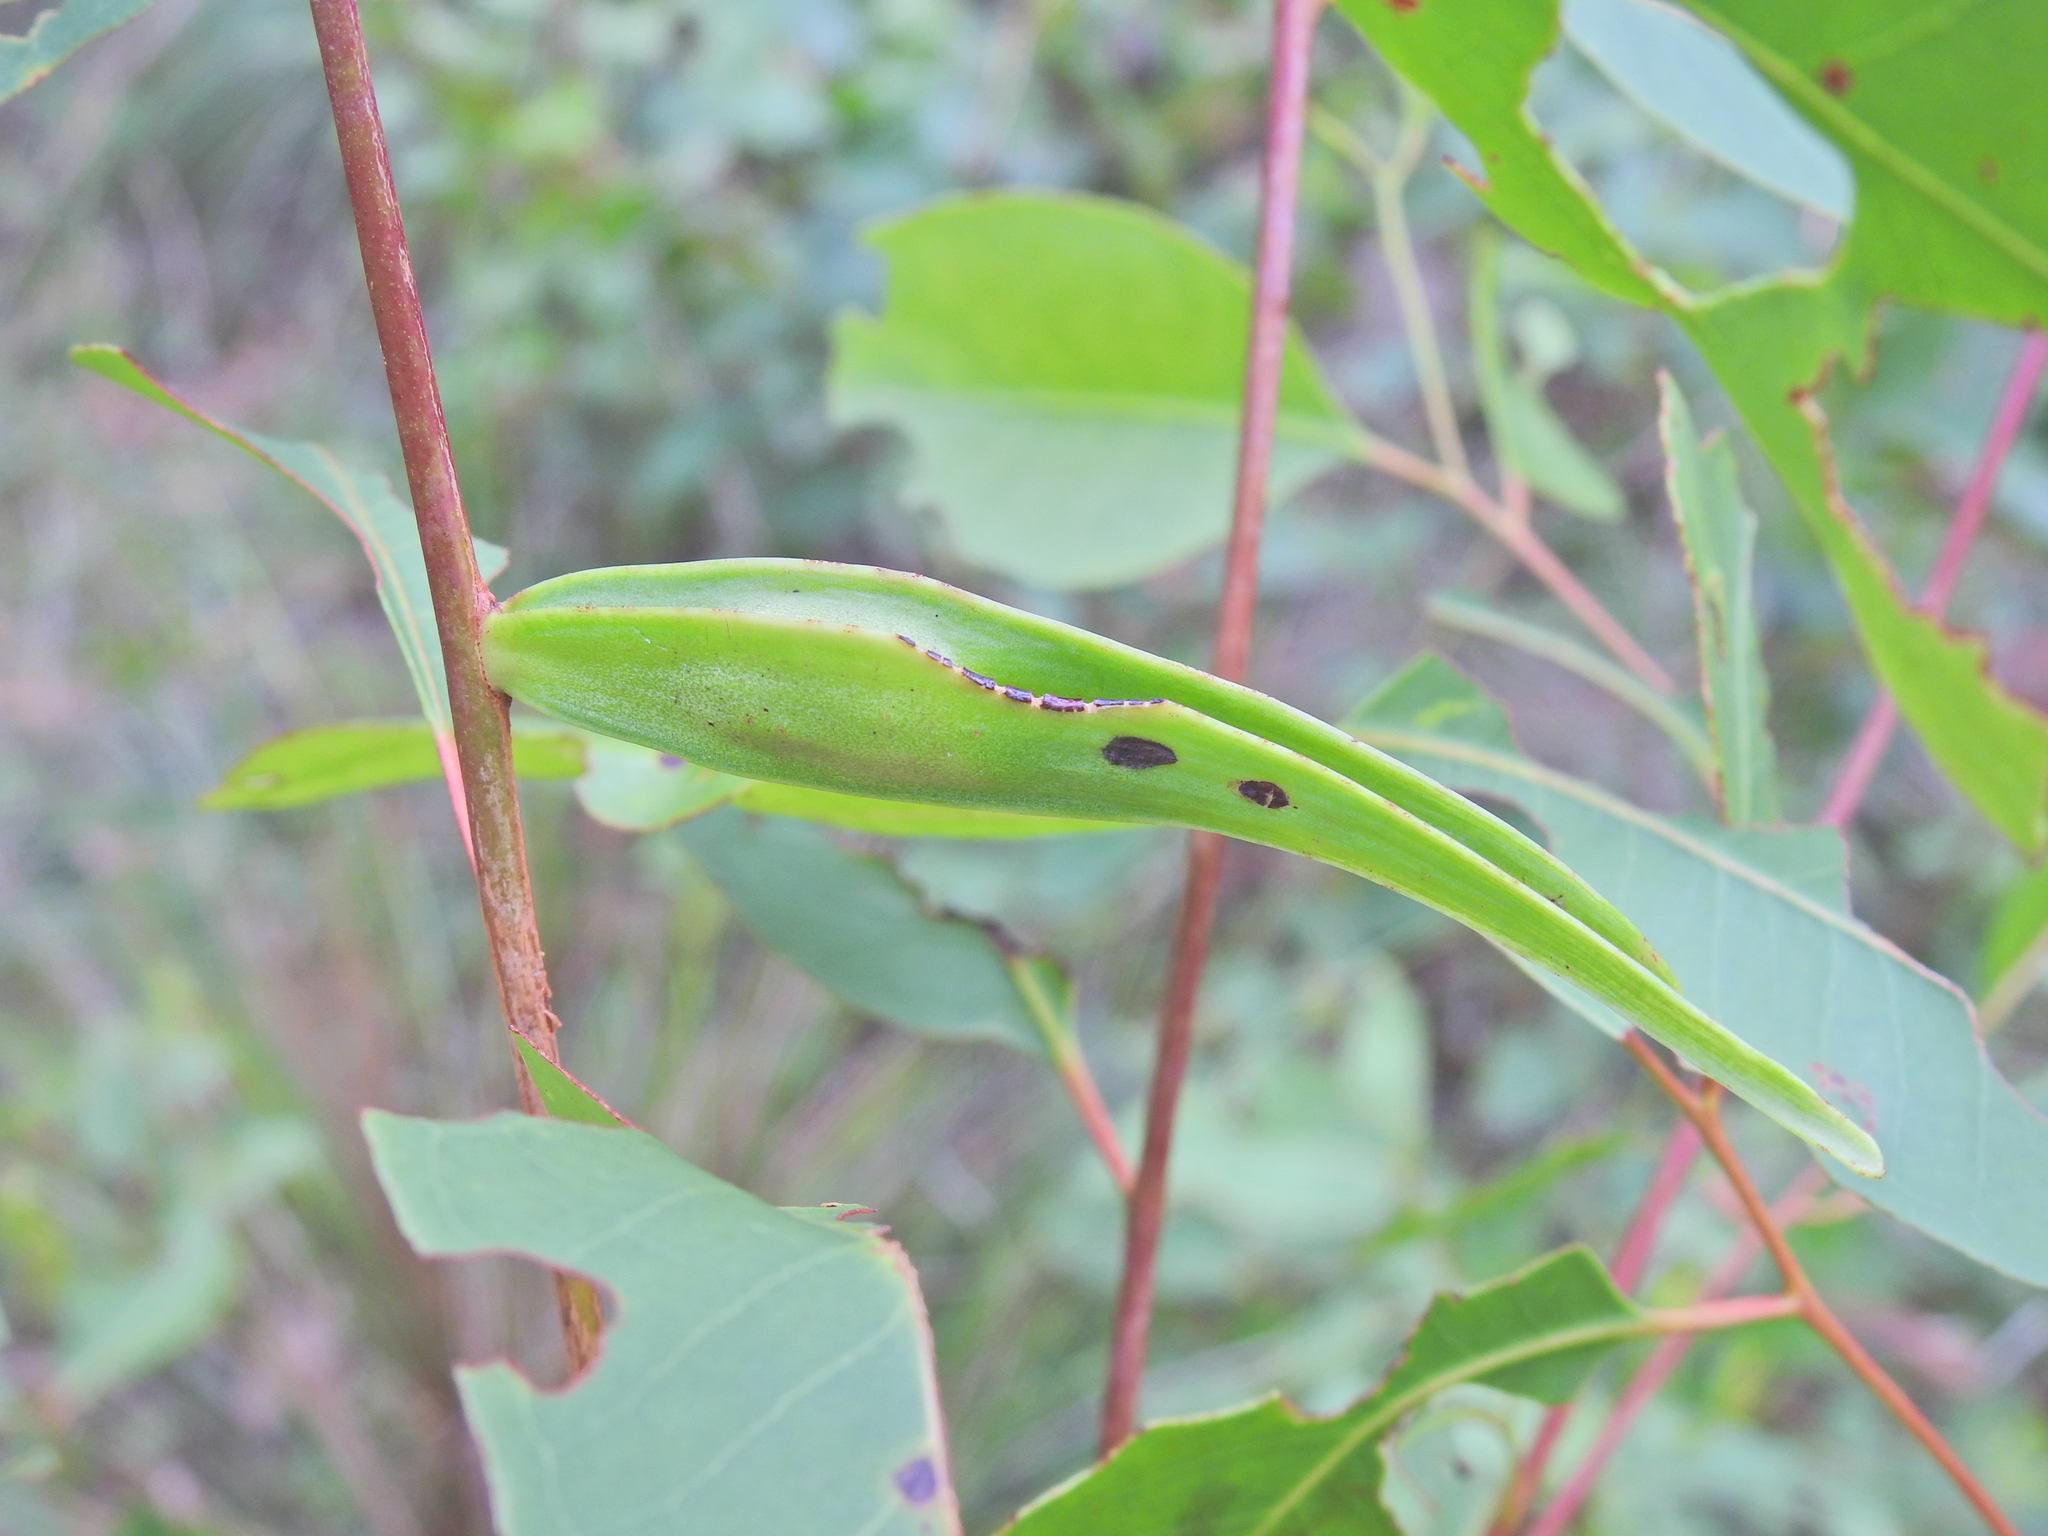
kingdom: Animalia
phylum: Arthropoda
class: Insecta
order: Hemiptera
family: Eriococcidae
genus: Apiomorpha
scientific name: Apiomorpha duplex
